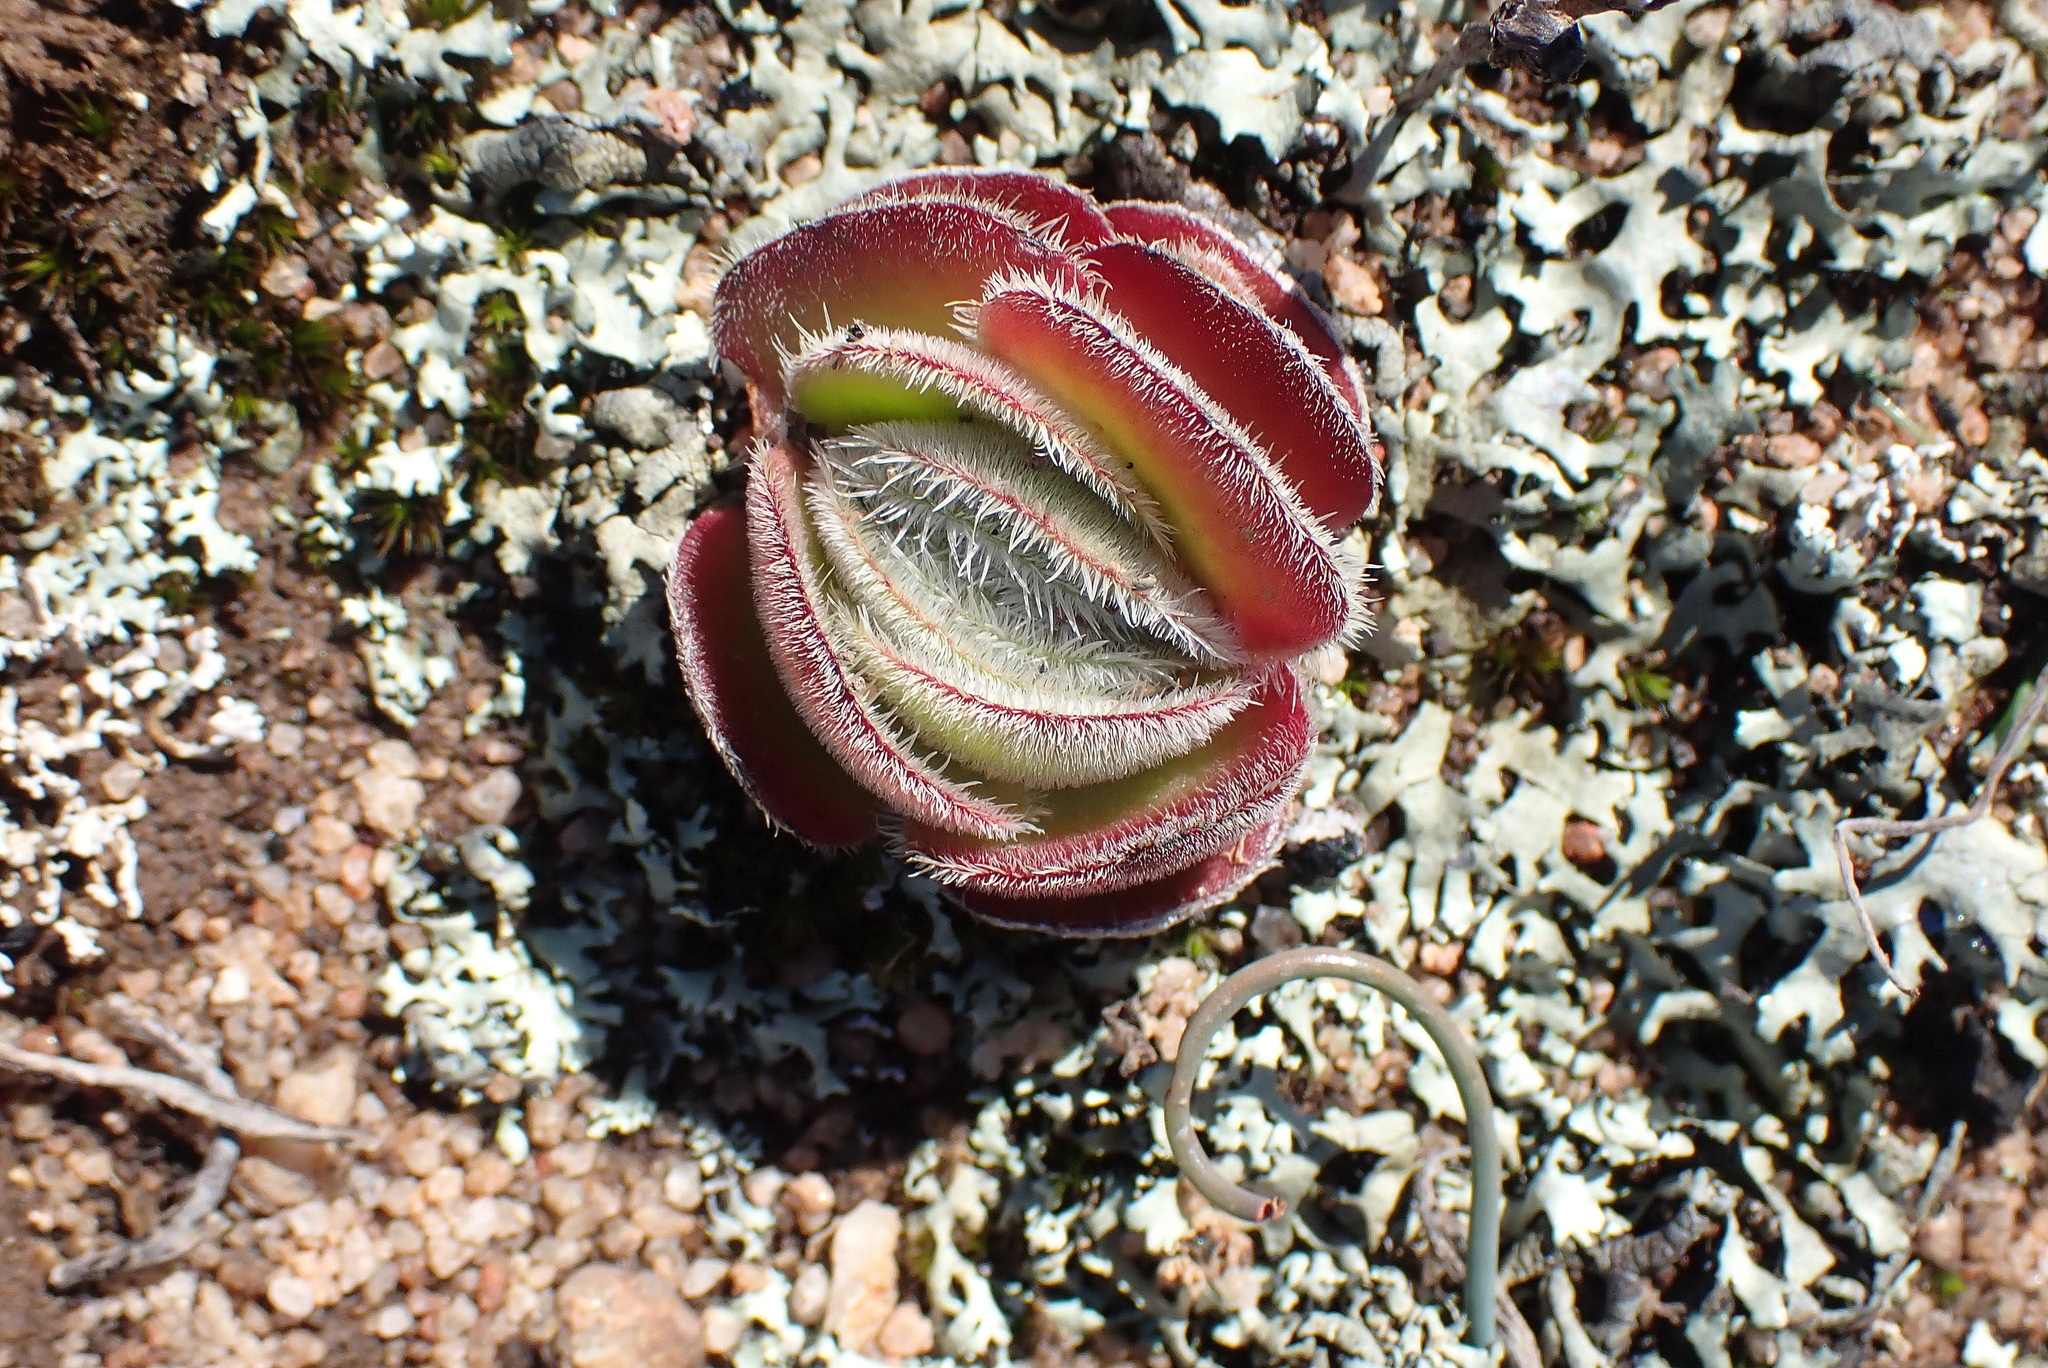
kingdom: Plantae
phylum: Tracheophyta
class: Magnoliopsida
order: Saxifragales
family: Crassulaceae
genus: Crassula
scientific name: Crassula tomentosa
